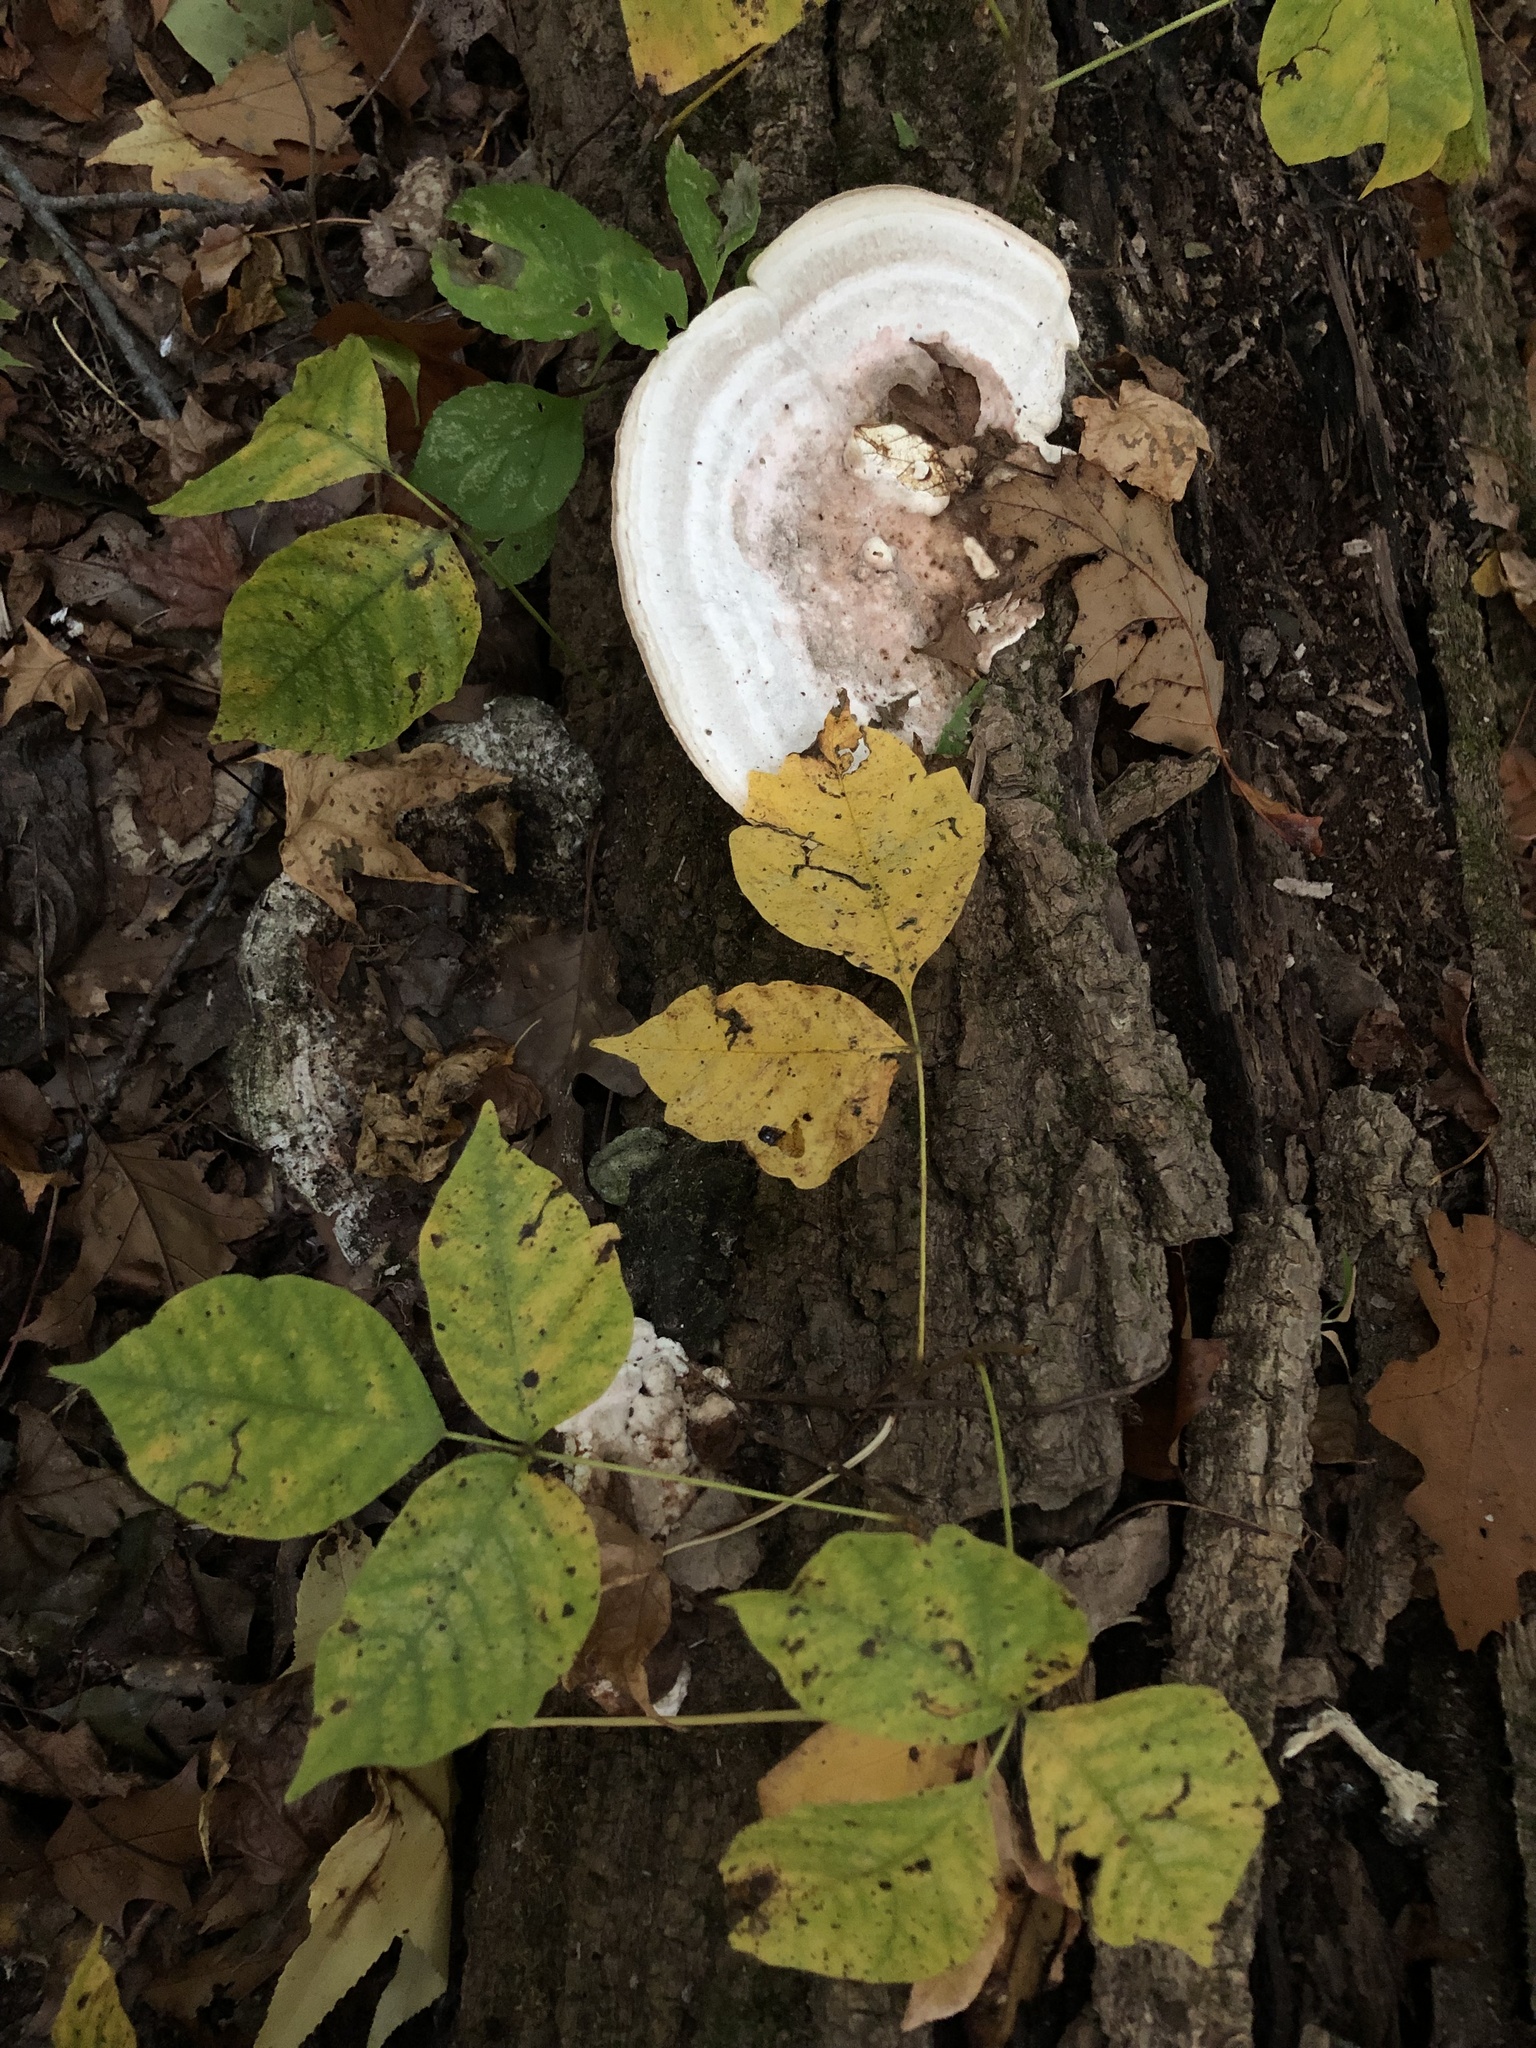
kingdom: Fungi
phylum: Basidiomycota
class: Agaricomycetes
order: Polyporales
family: Polyporaceae
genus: Trametes
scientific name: Trametes gibbosa
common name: Lumpy bracket
